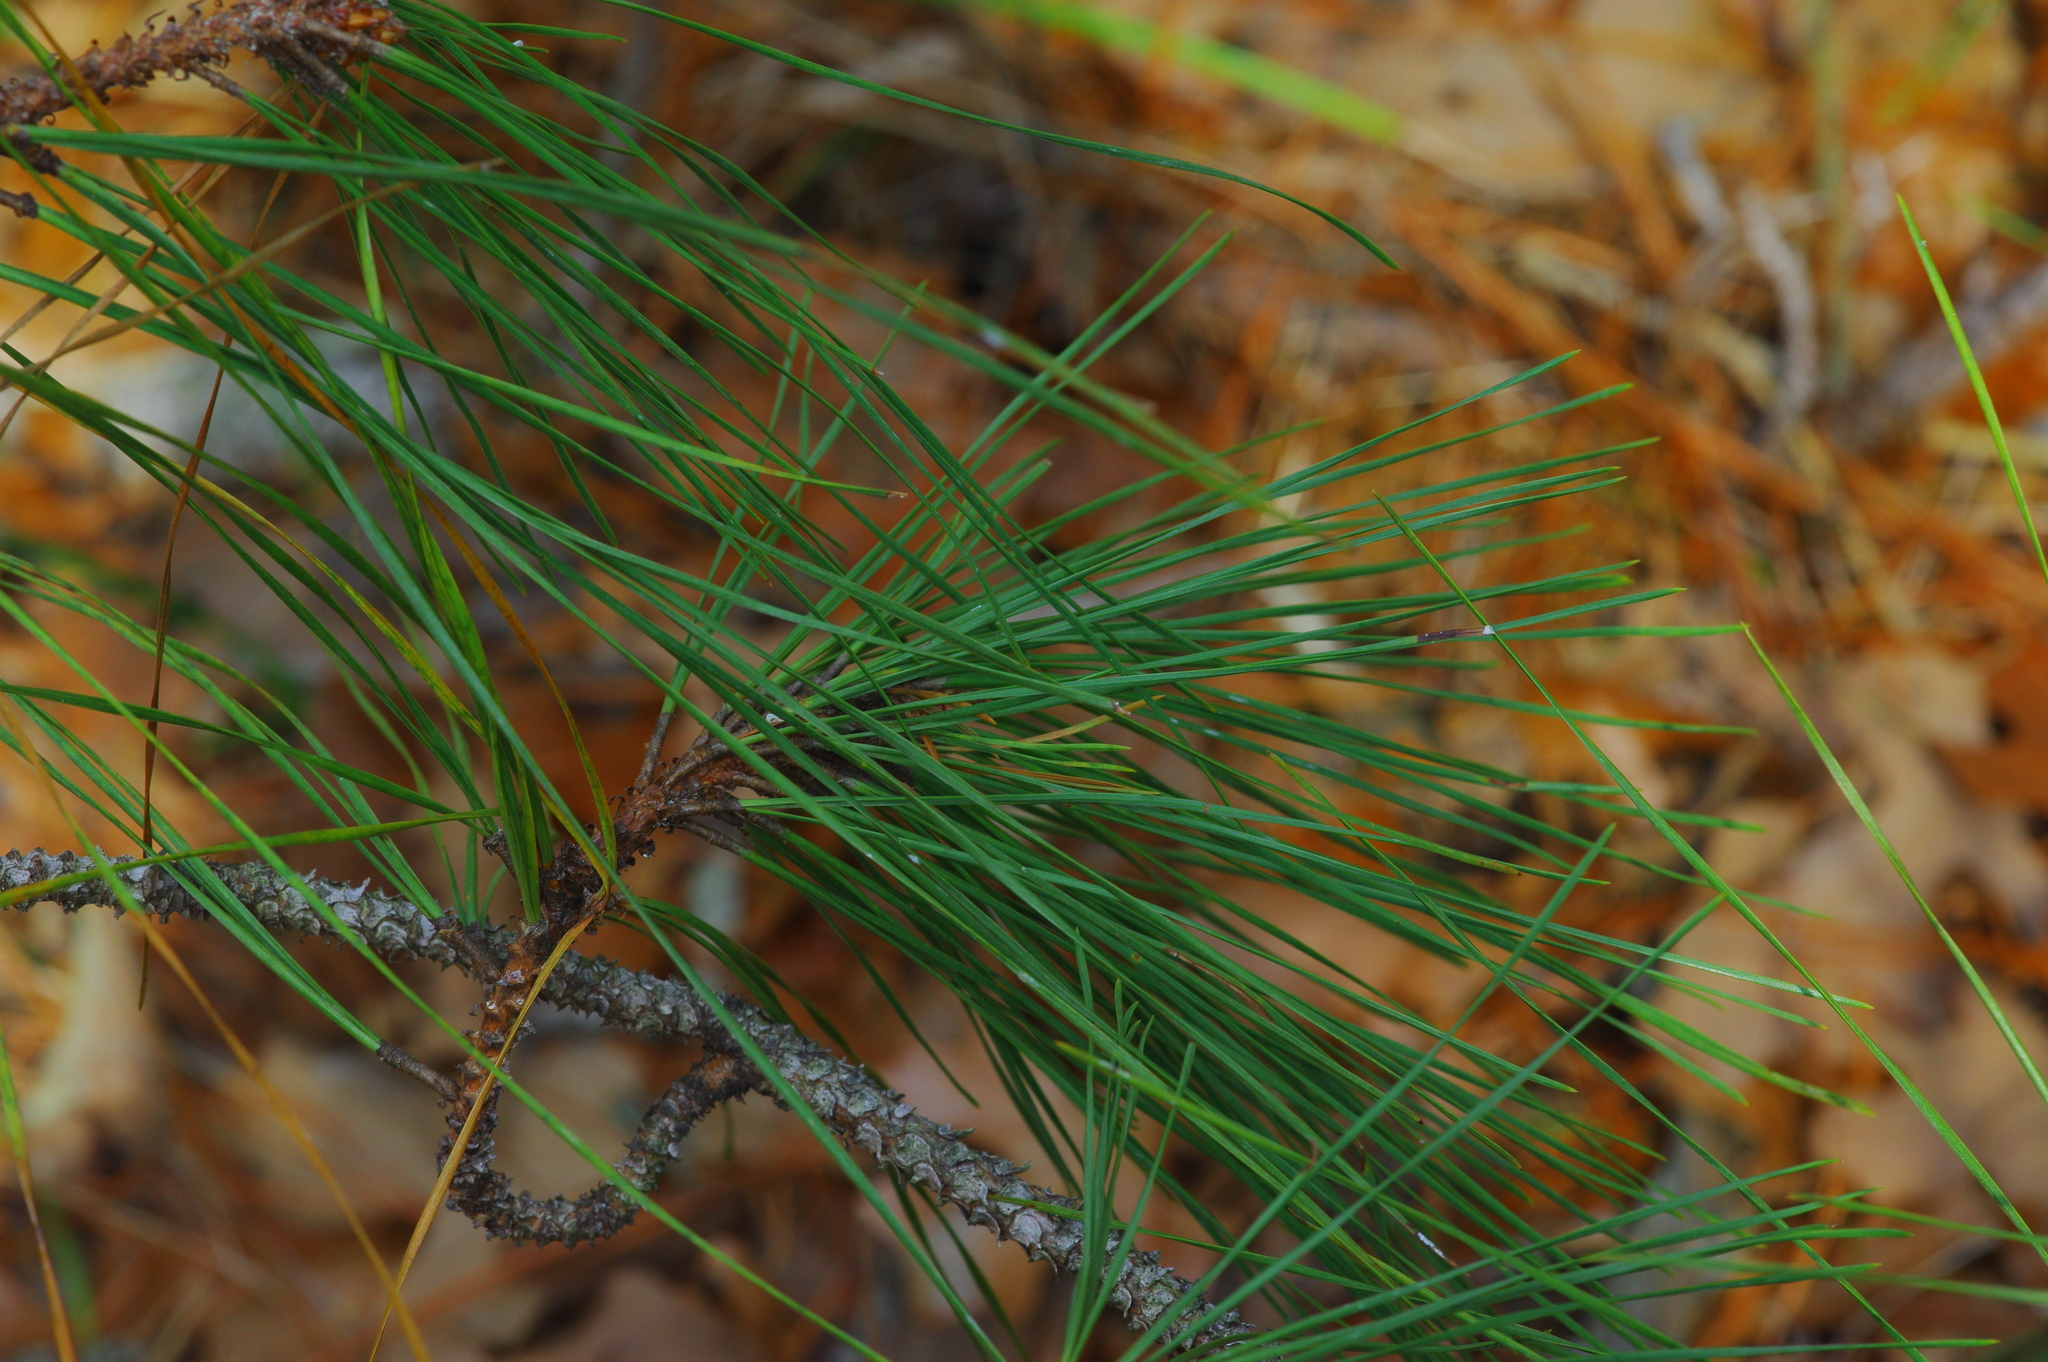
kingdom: Plantae
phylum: Tracheophyta
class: Pinopsida
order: Pinales
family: Pinaceae
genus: Pinus
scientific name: Pinus taeda
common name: Loblolly pine
